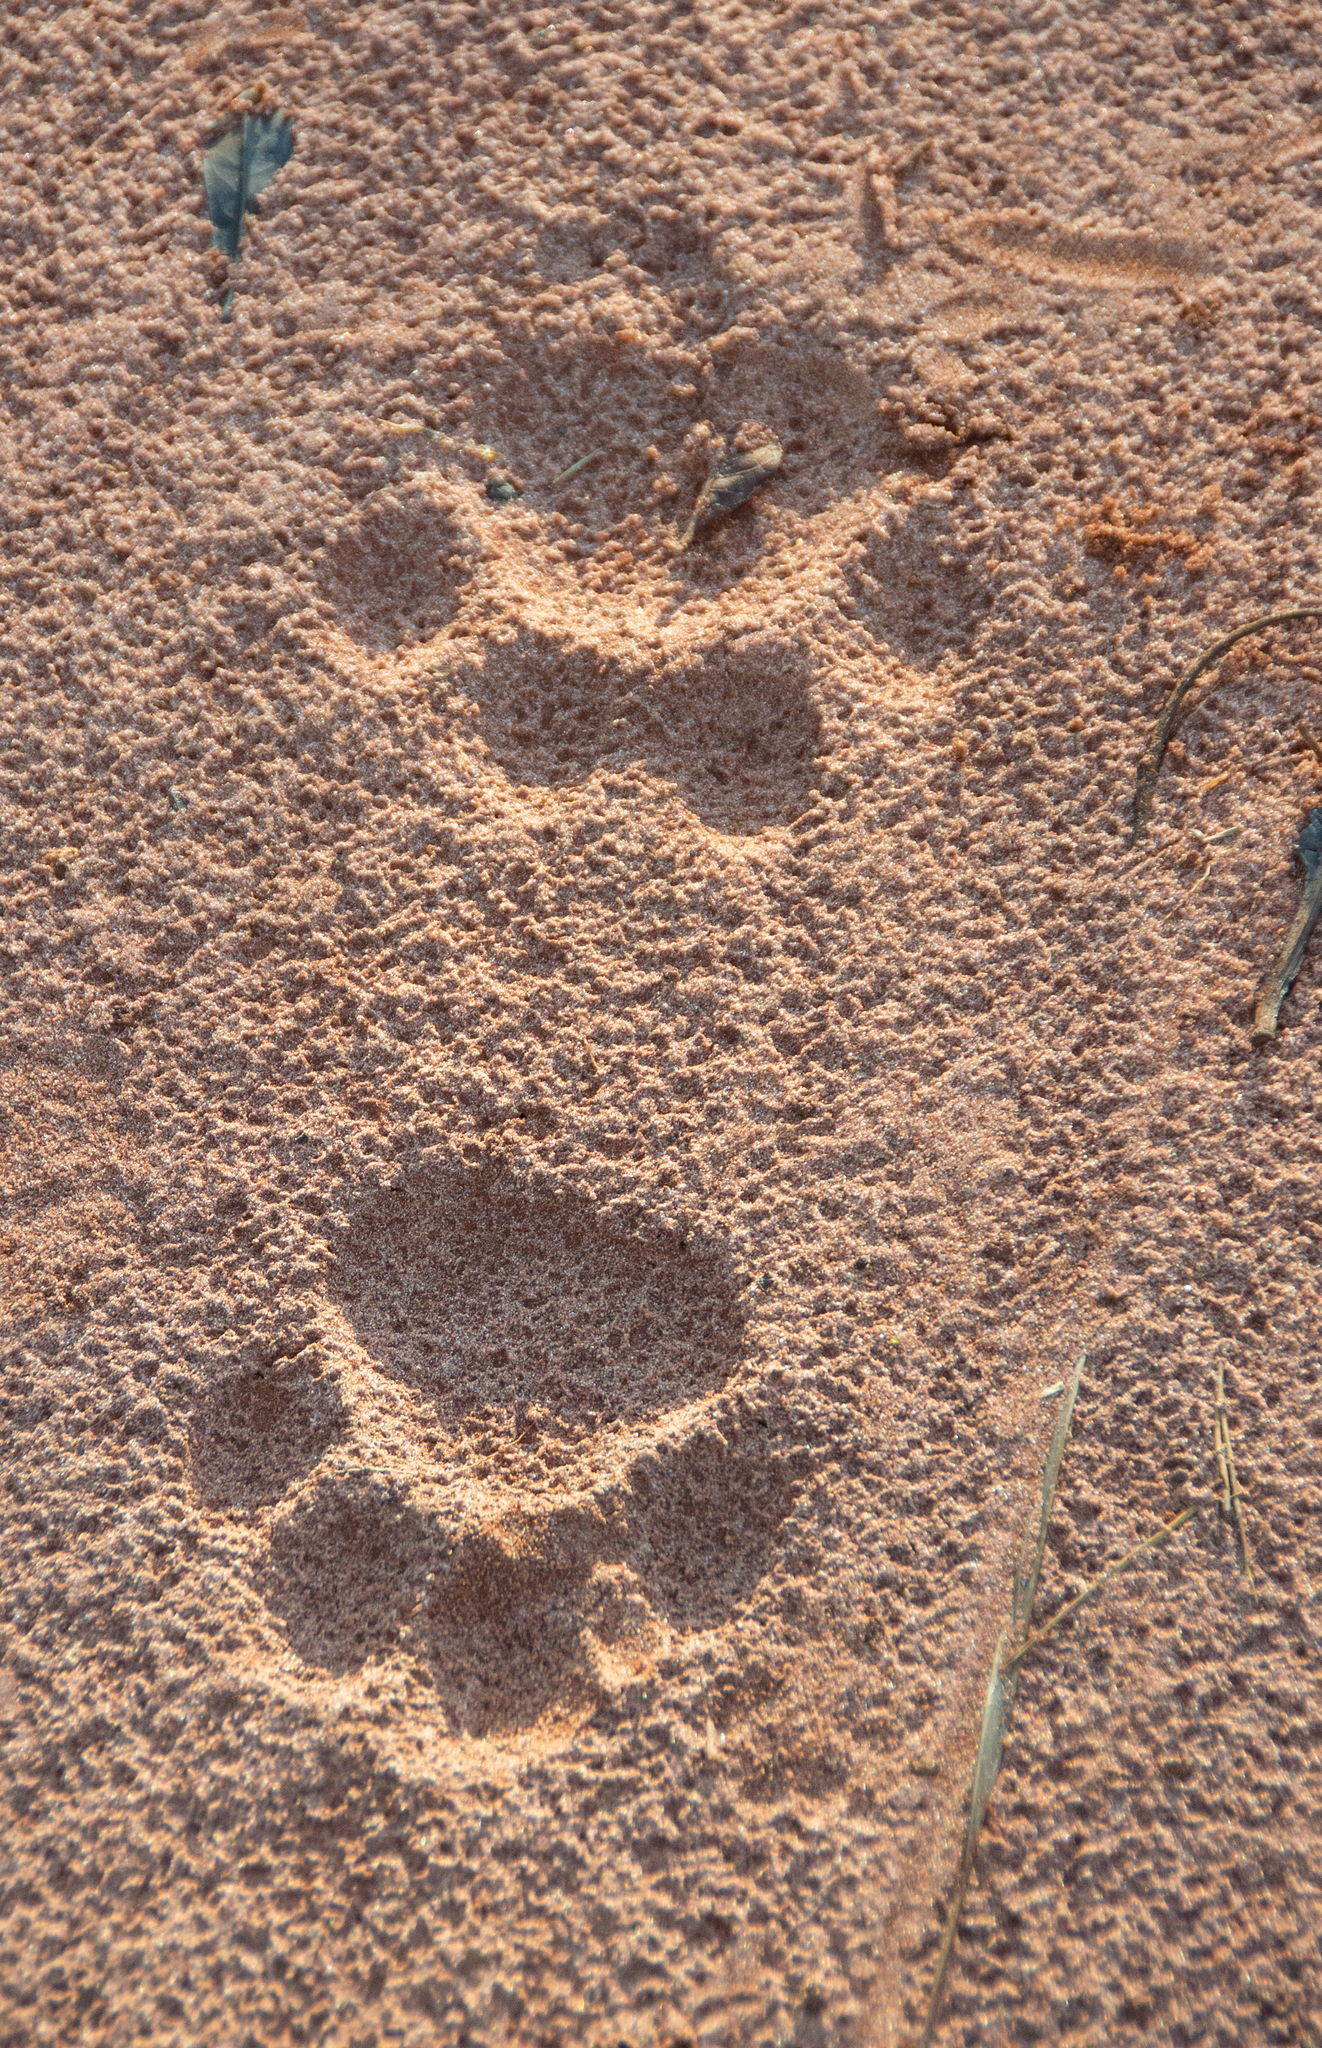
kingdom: Animalia
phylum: Chordata
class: Mammalia
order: Carnivora
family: Felidae
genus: Panthera
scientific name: Panthera onca
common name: Jaguar
